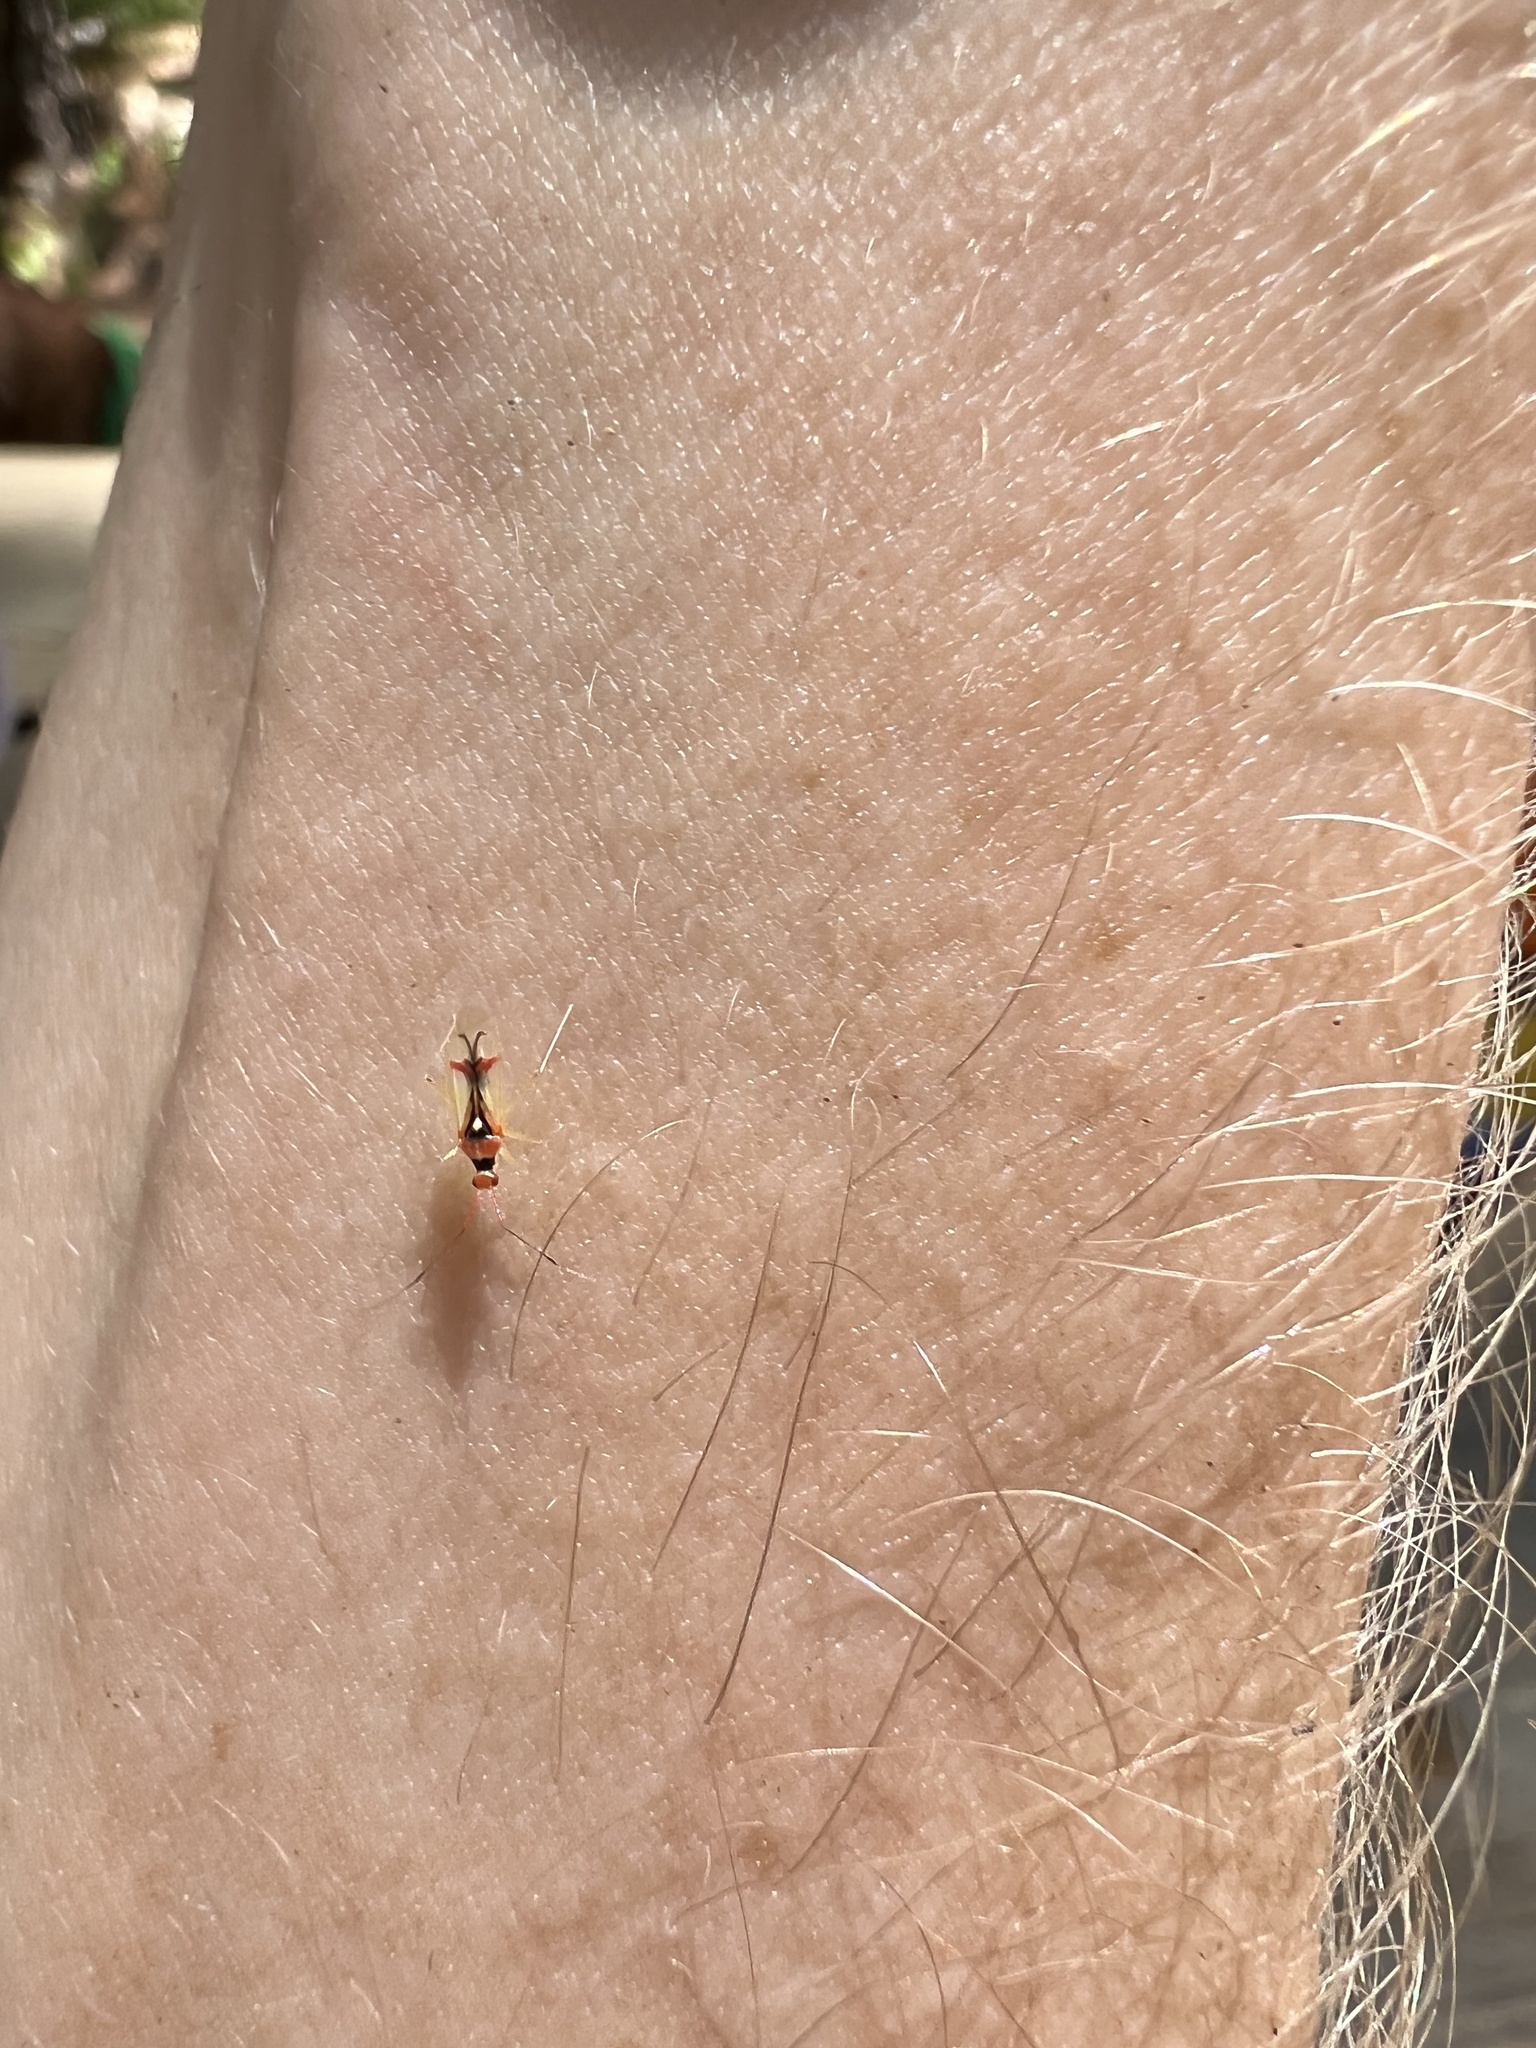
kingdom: Animalia
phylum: Arthropoda
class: Insecta
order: Hemiptera
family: Miridae
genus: Hyaliodes
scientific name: Hyaliodes harti
